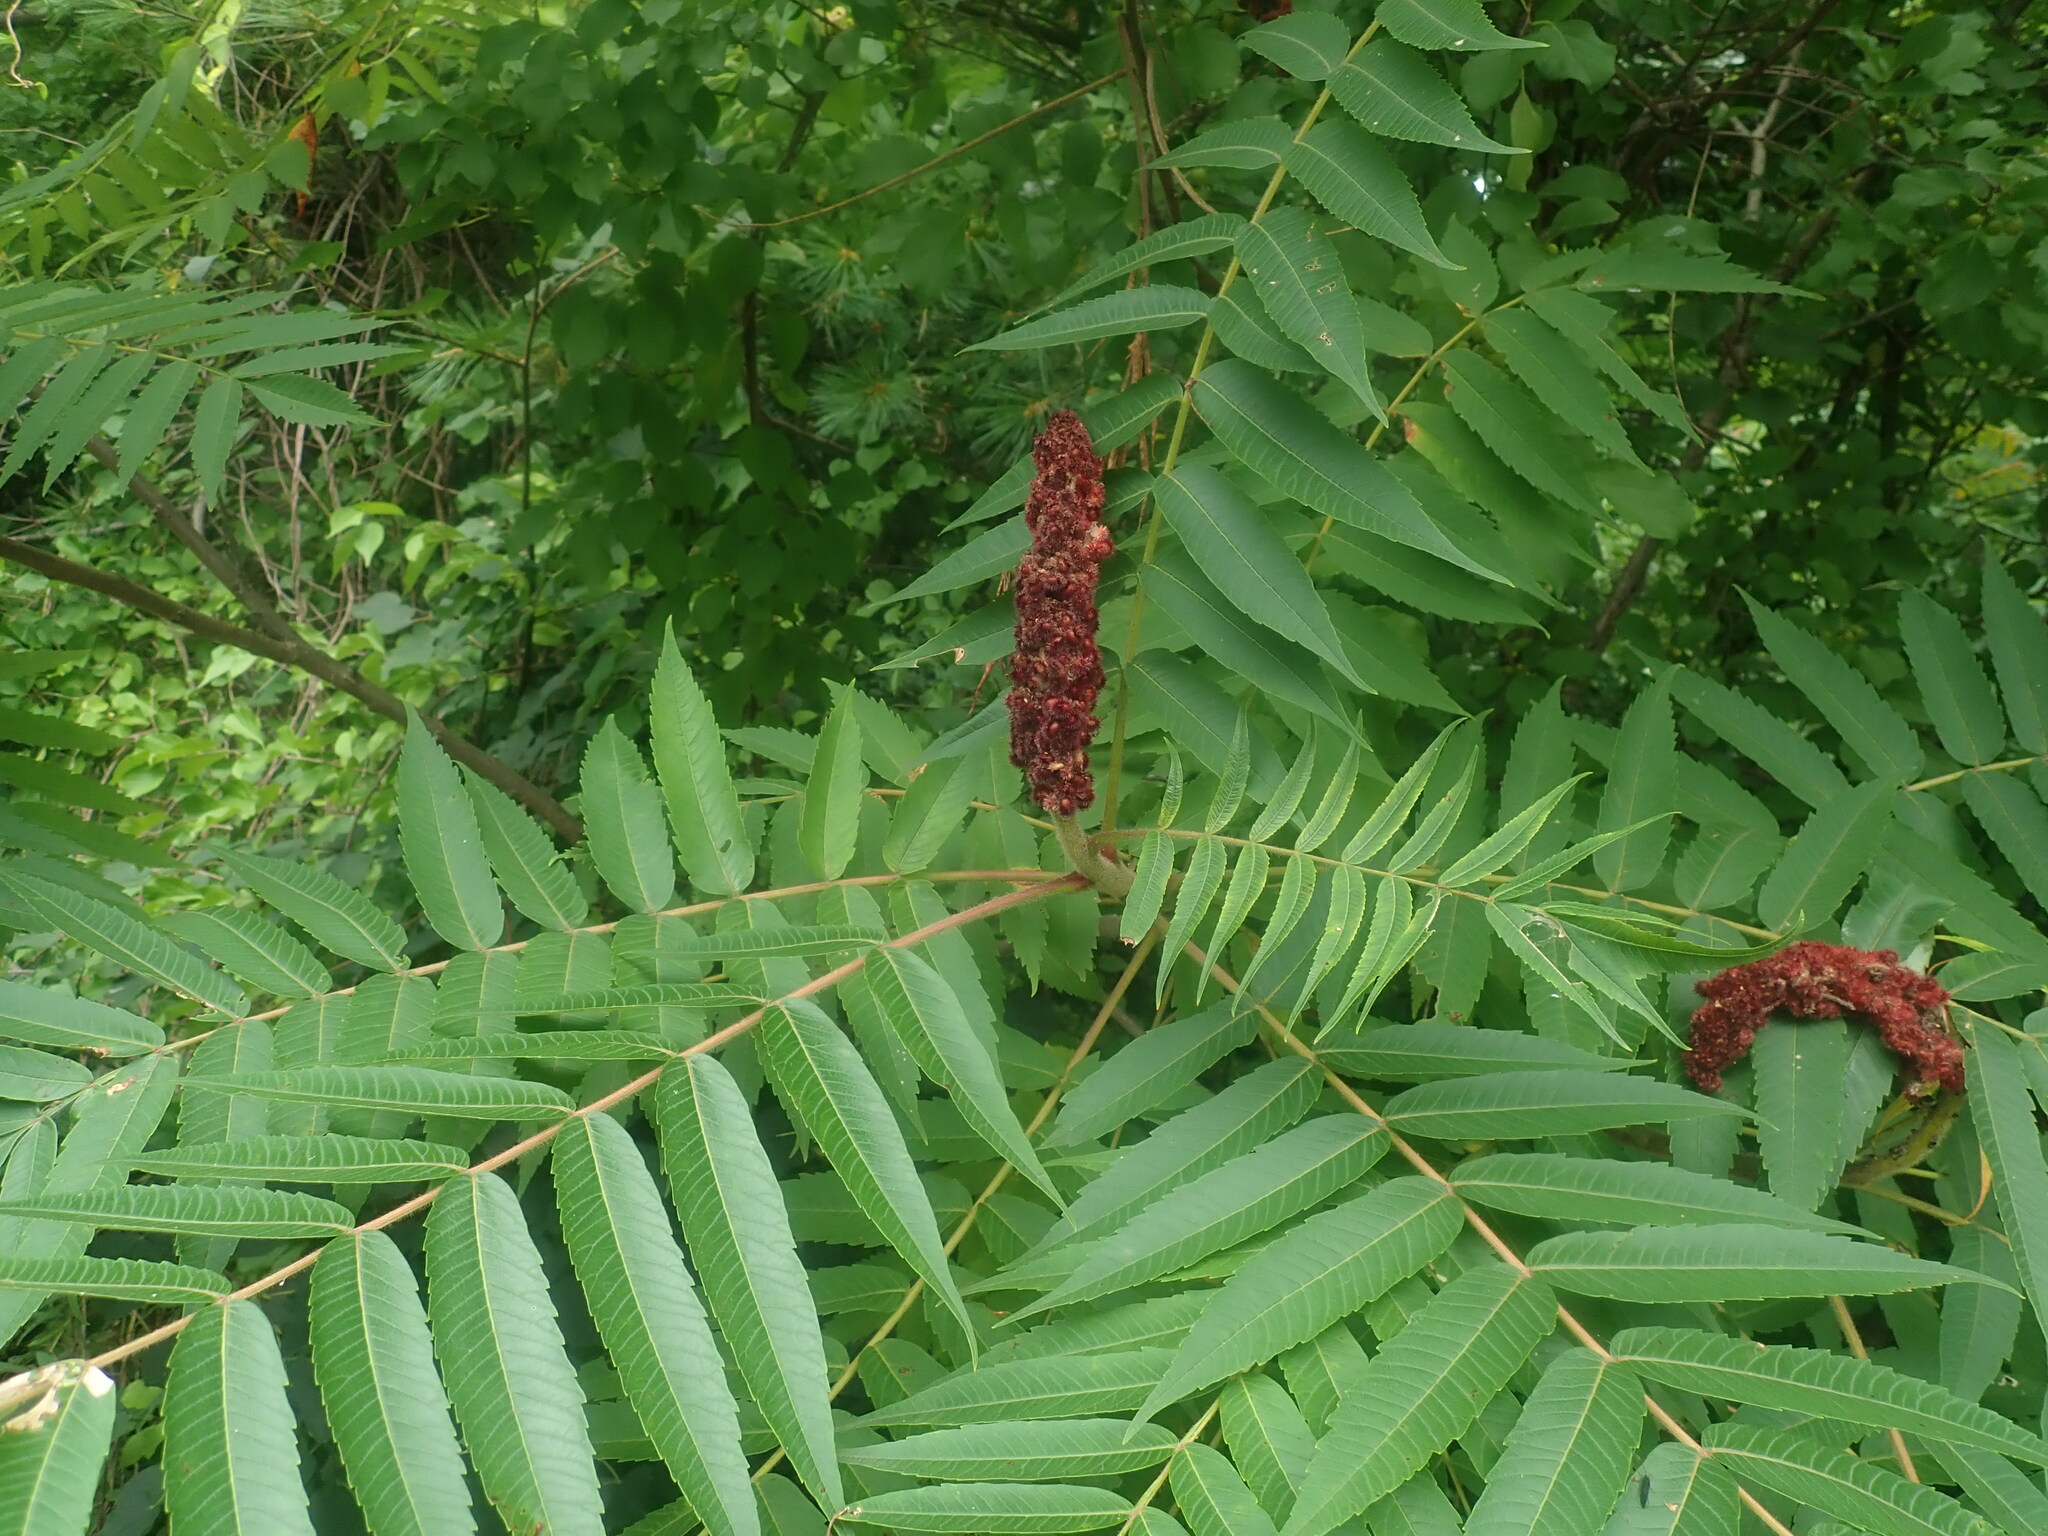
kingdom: Plantae
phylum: Tracheophyta
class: Magnoliopsida
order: Sapindales
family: Anacardiaceae
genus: Rhus
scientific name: Rhus typhina
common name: Staghorn sumac
